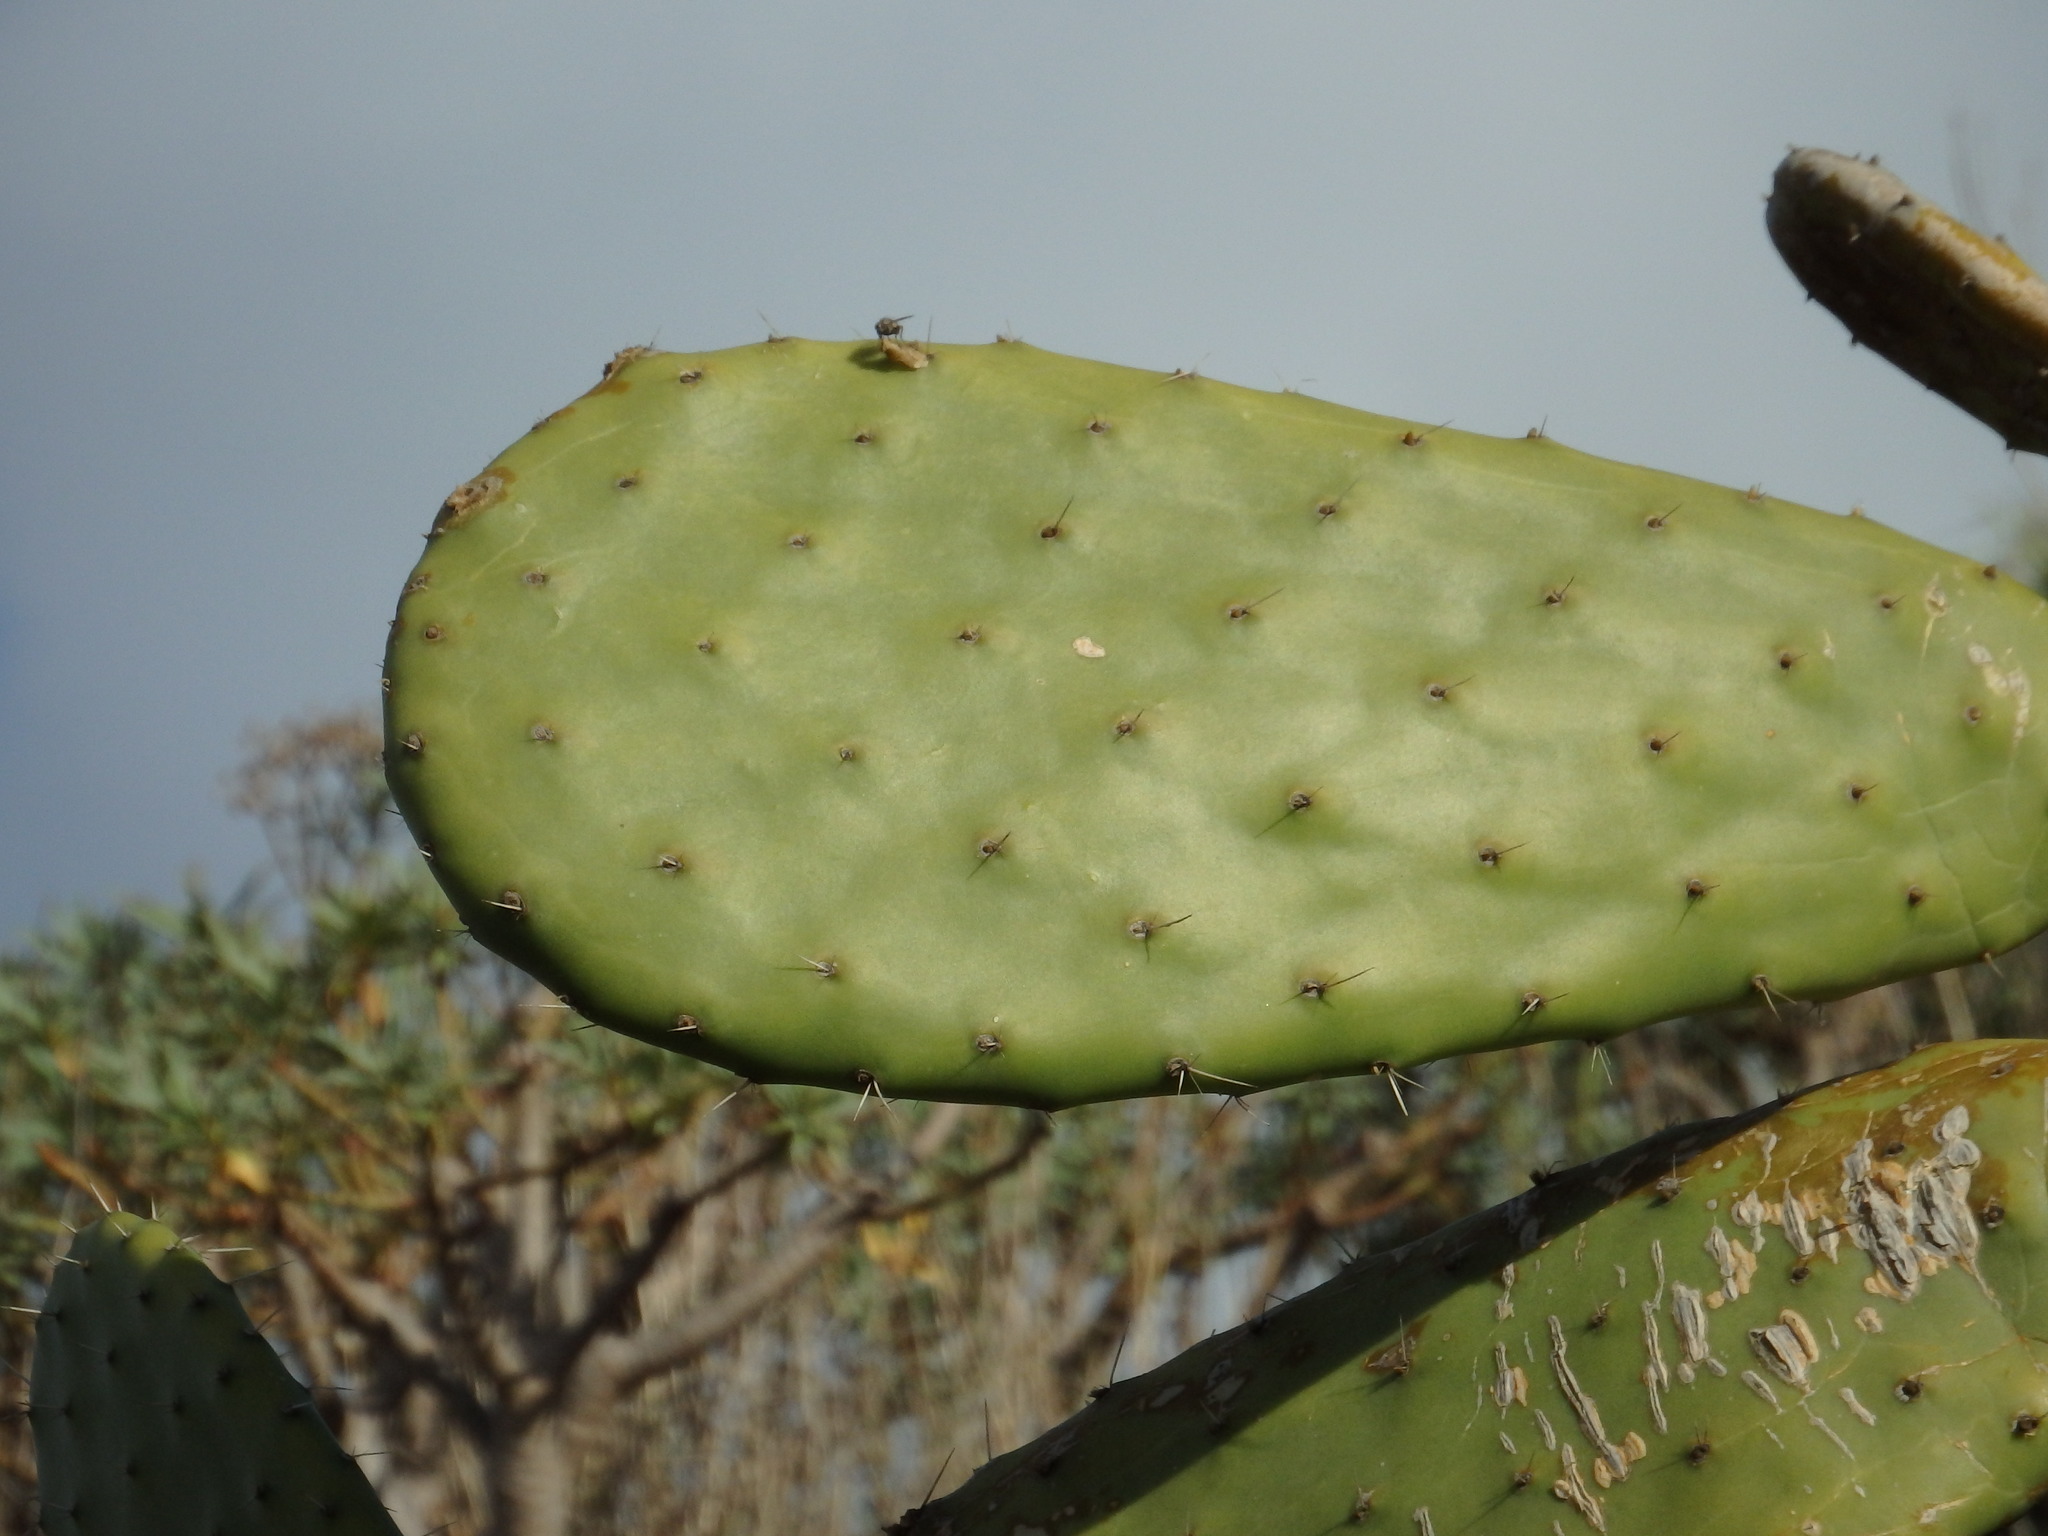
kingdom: Plantae
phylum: Tracheophyta
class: Magnoliopsida
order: Caryophyllales
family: Cactaceae
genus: Opuntia
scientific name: Opuntia ficus-indica
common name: Barbary fig
